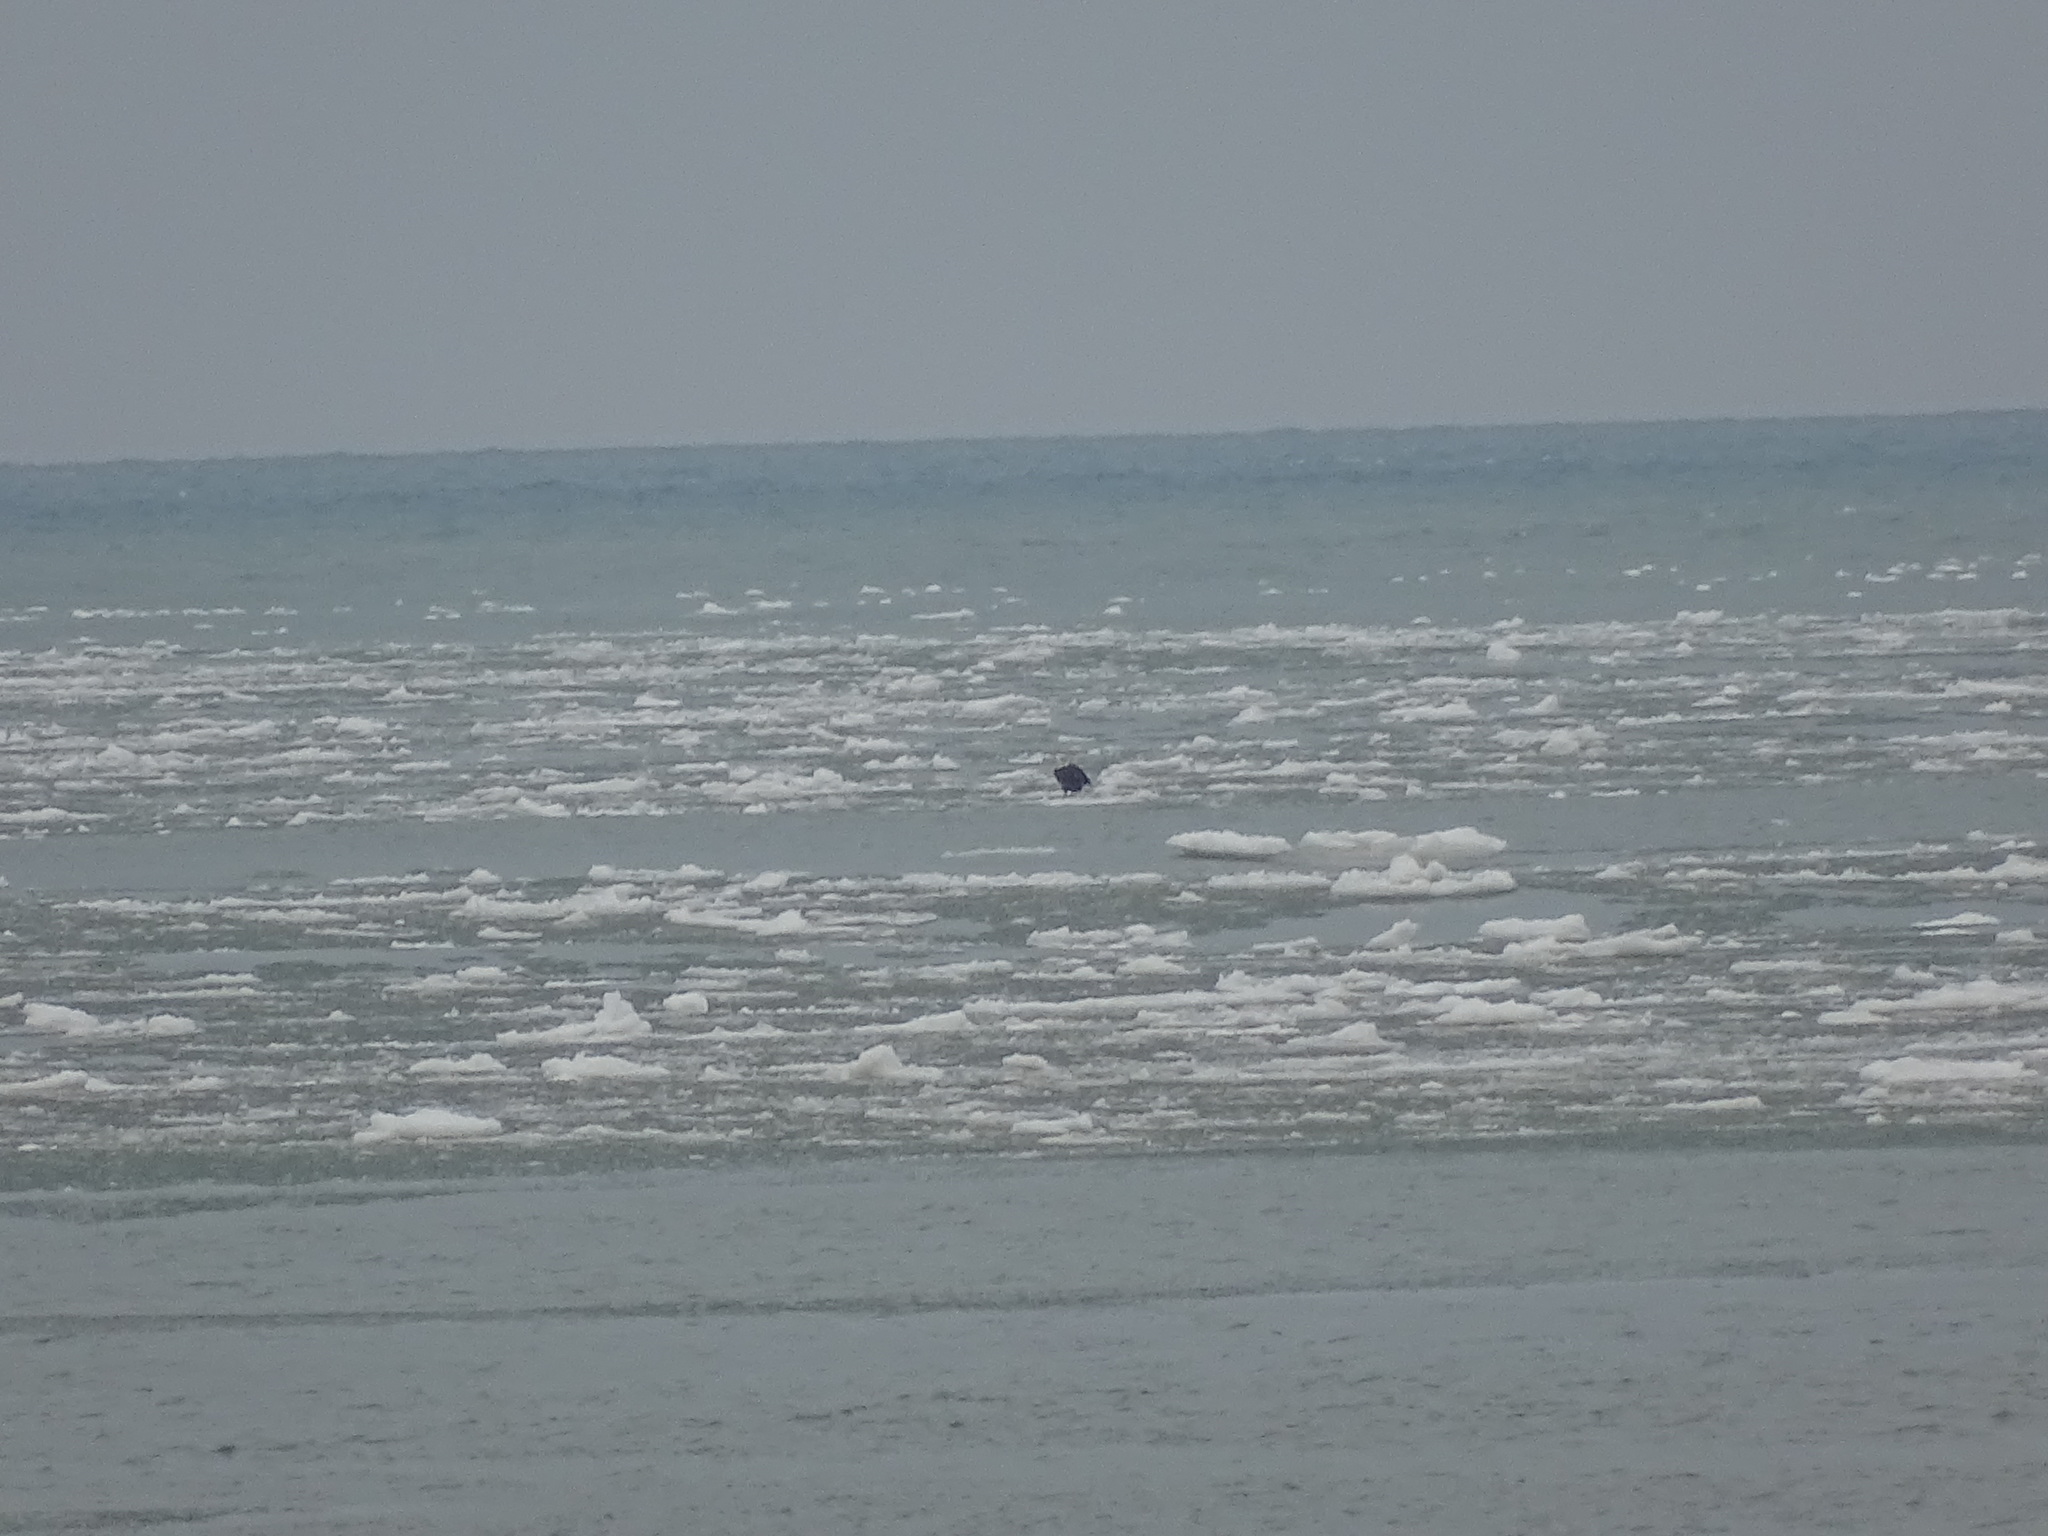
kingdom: Animalia
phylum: Chordata
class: Aves
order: Accipitriformes
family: Accipitridae
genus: Haliaeetus
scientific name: Haliaeetus leucocephalus
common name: Bald eagle
